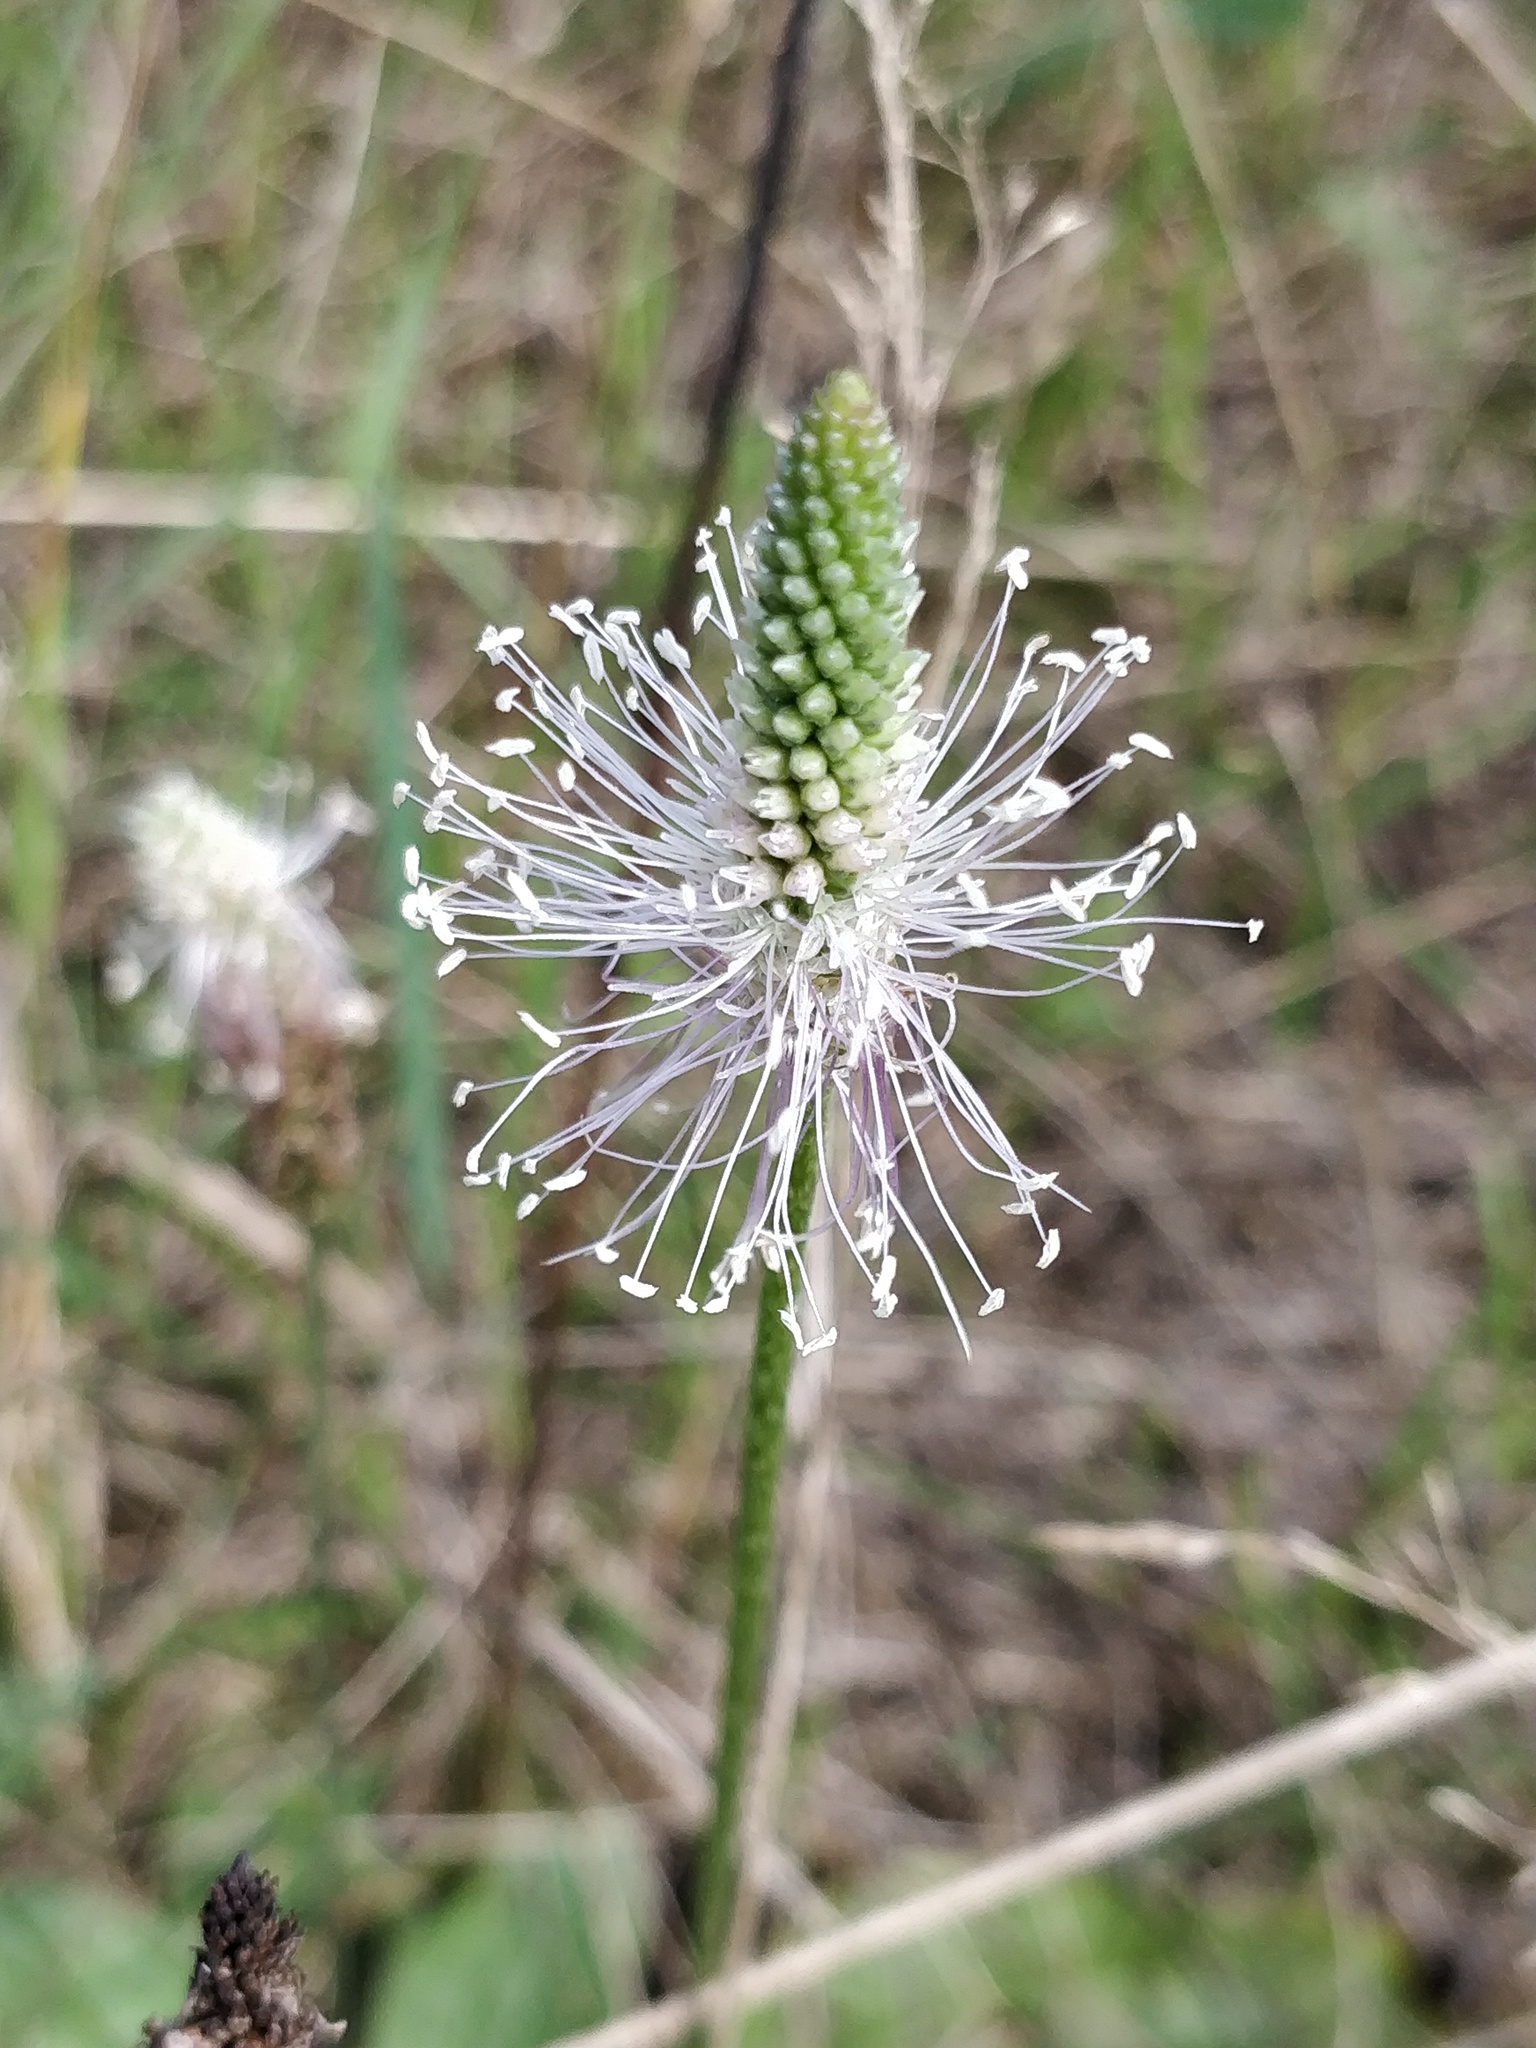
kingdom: Plantae
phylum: Tracheophyta
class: Magnoliopsida
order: Lamiales
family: Plantaginaceae
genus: Plantago
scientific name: Plantago media
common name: Hoary plantain
